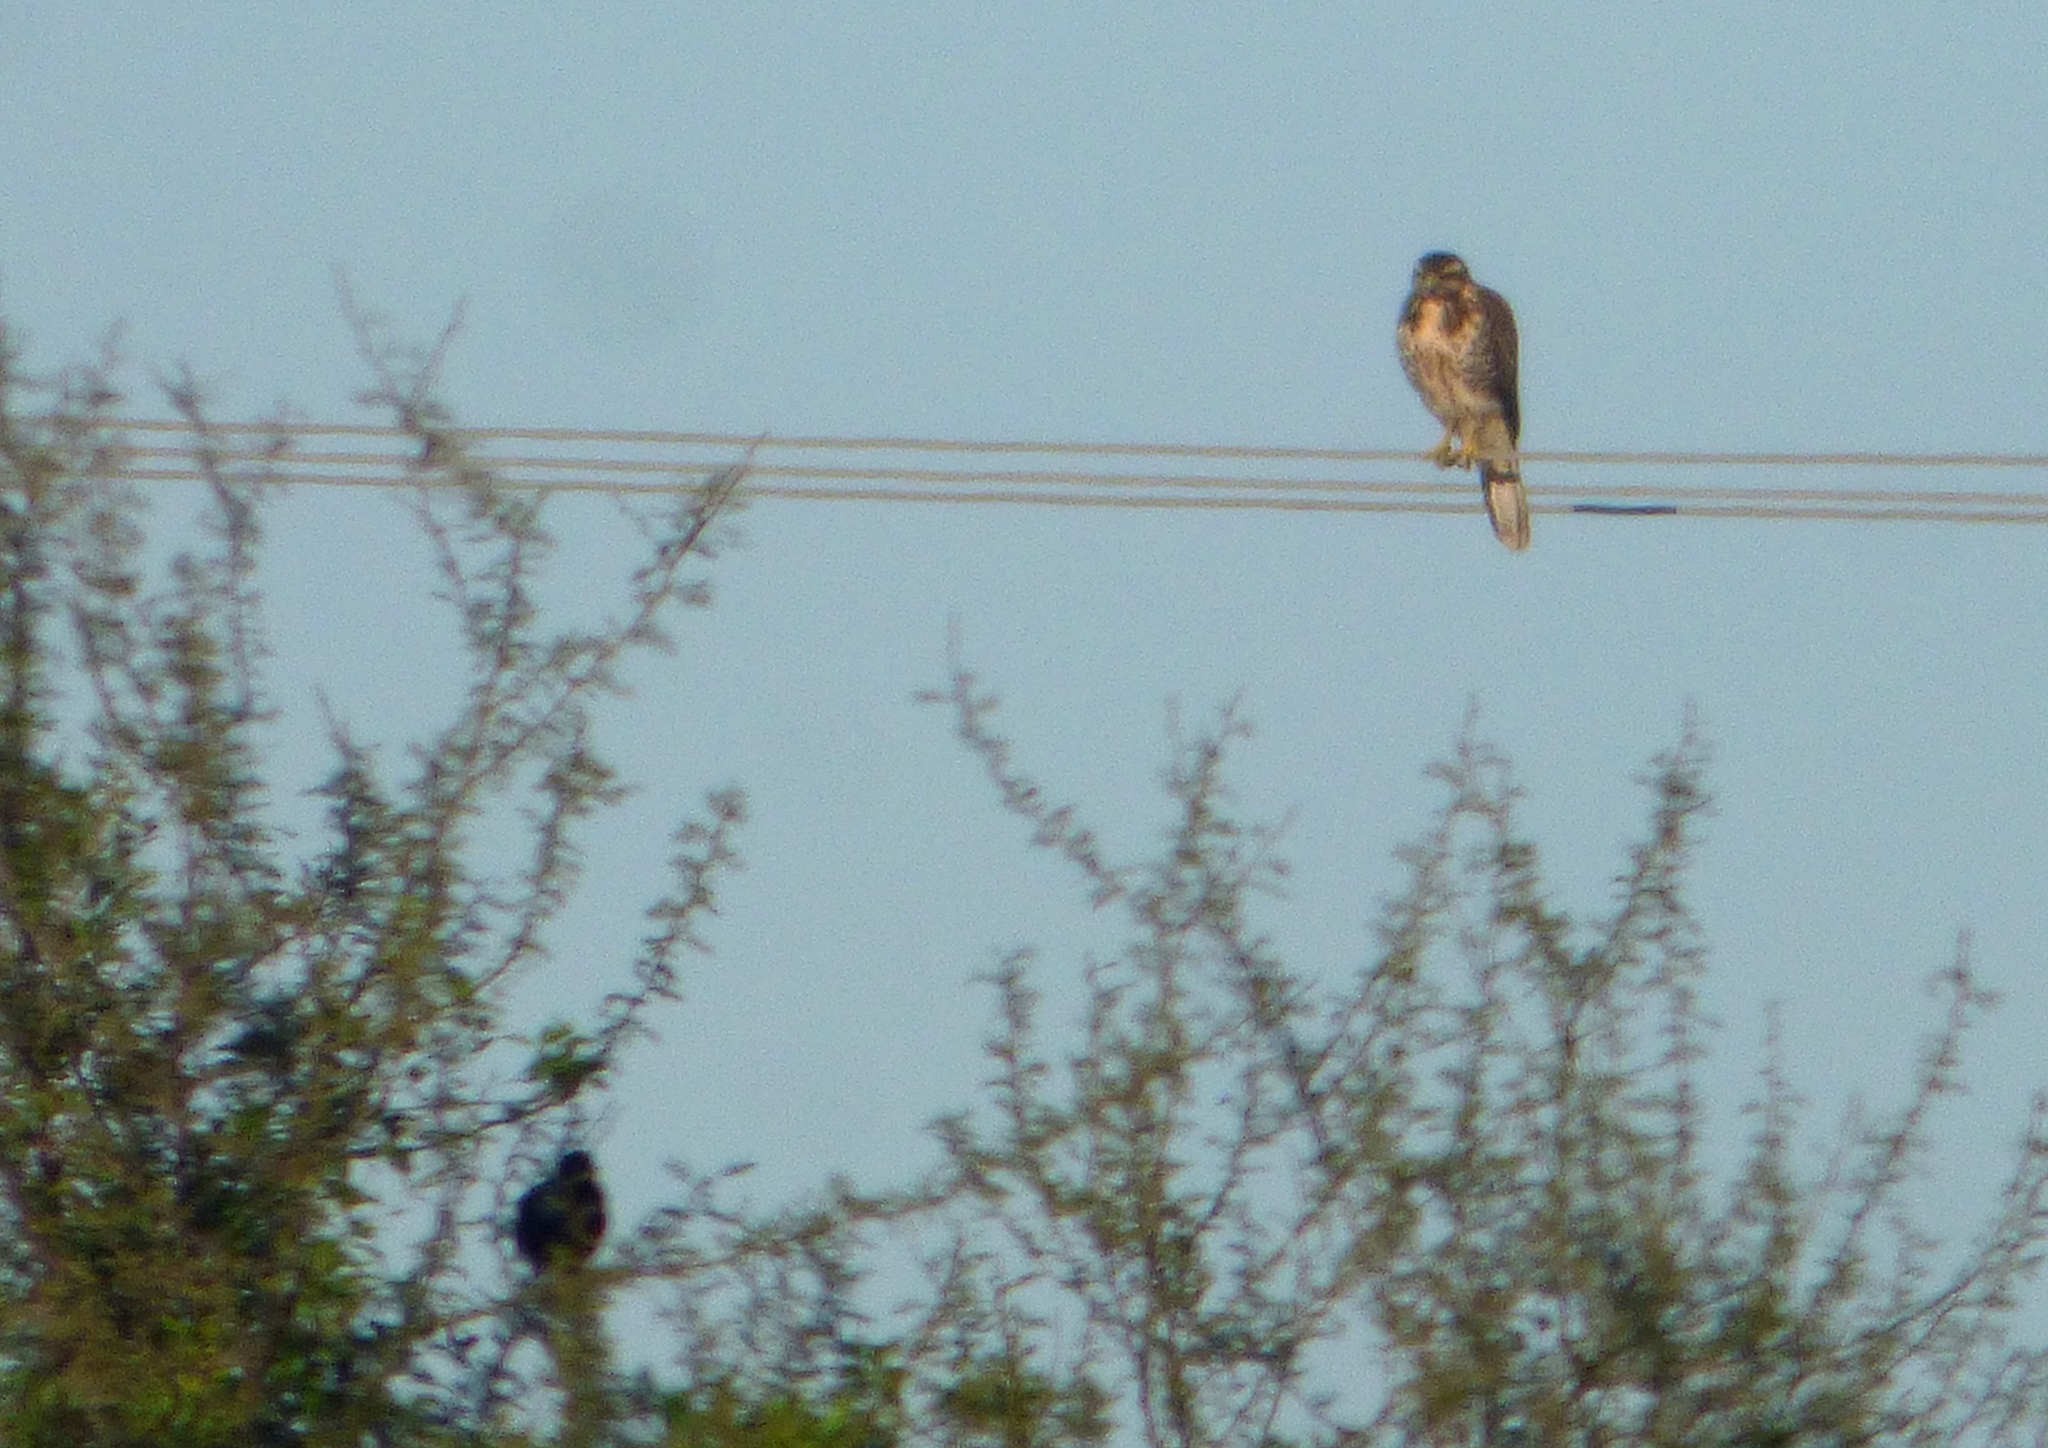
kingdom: Animalia
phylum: Chordata
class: Aves
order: Accipitriformes
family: Accipitridae
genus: Parabuteo
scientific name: Parabuteo unicinctus
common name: Harris's hawk
